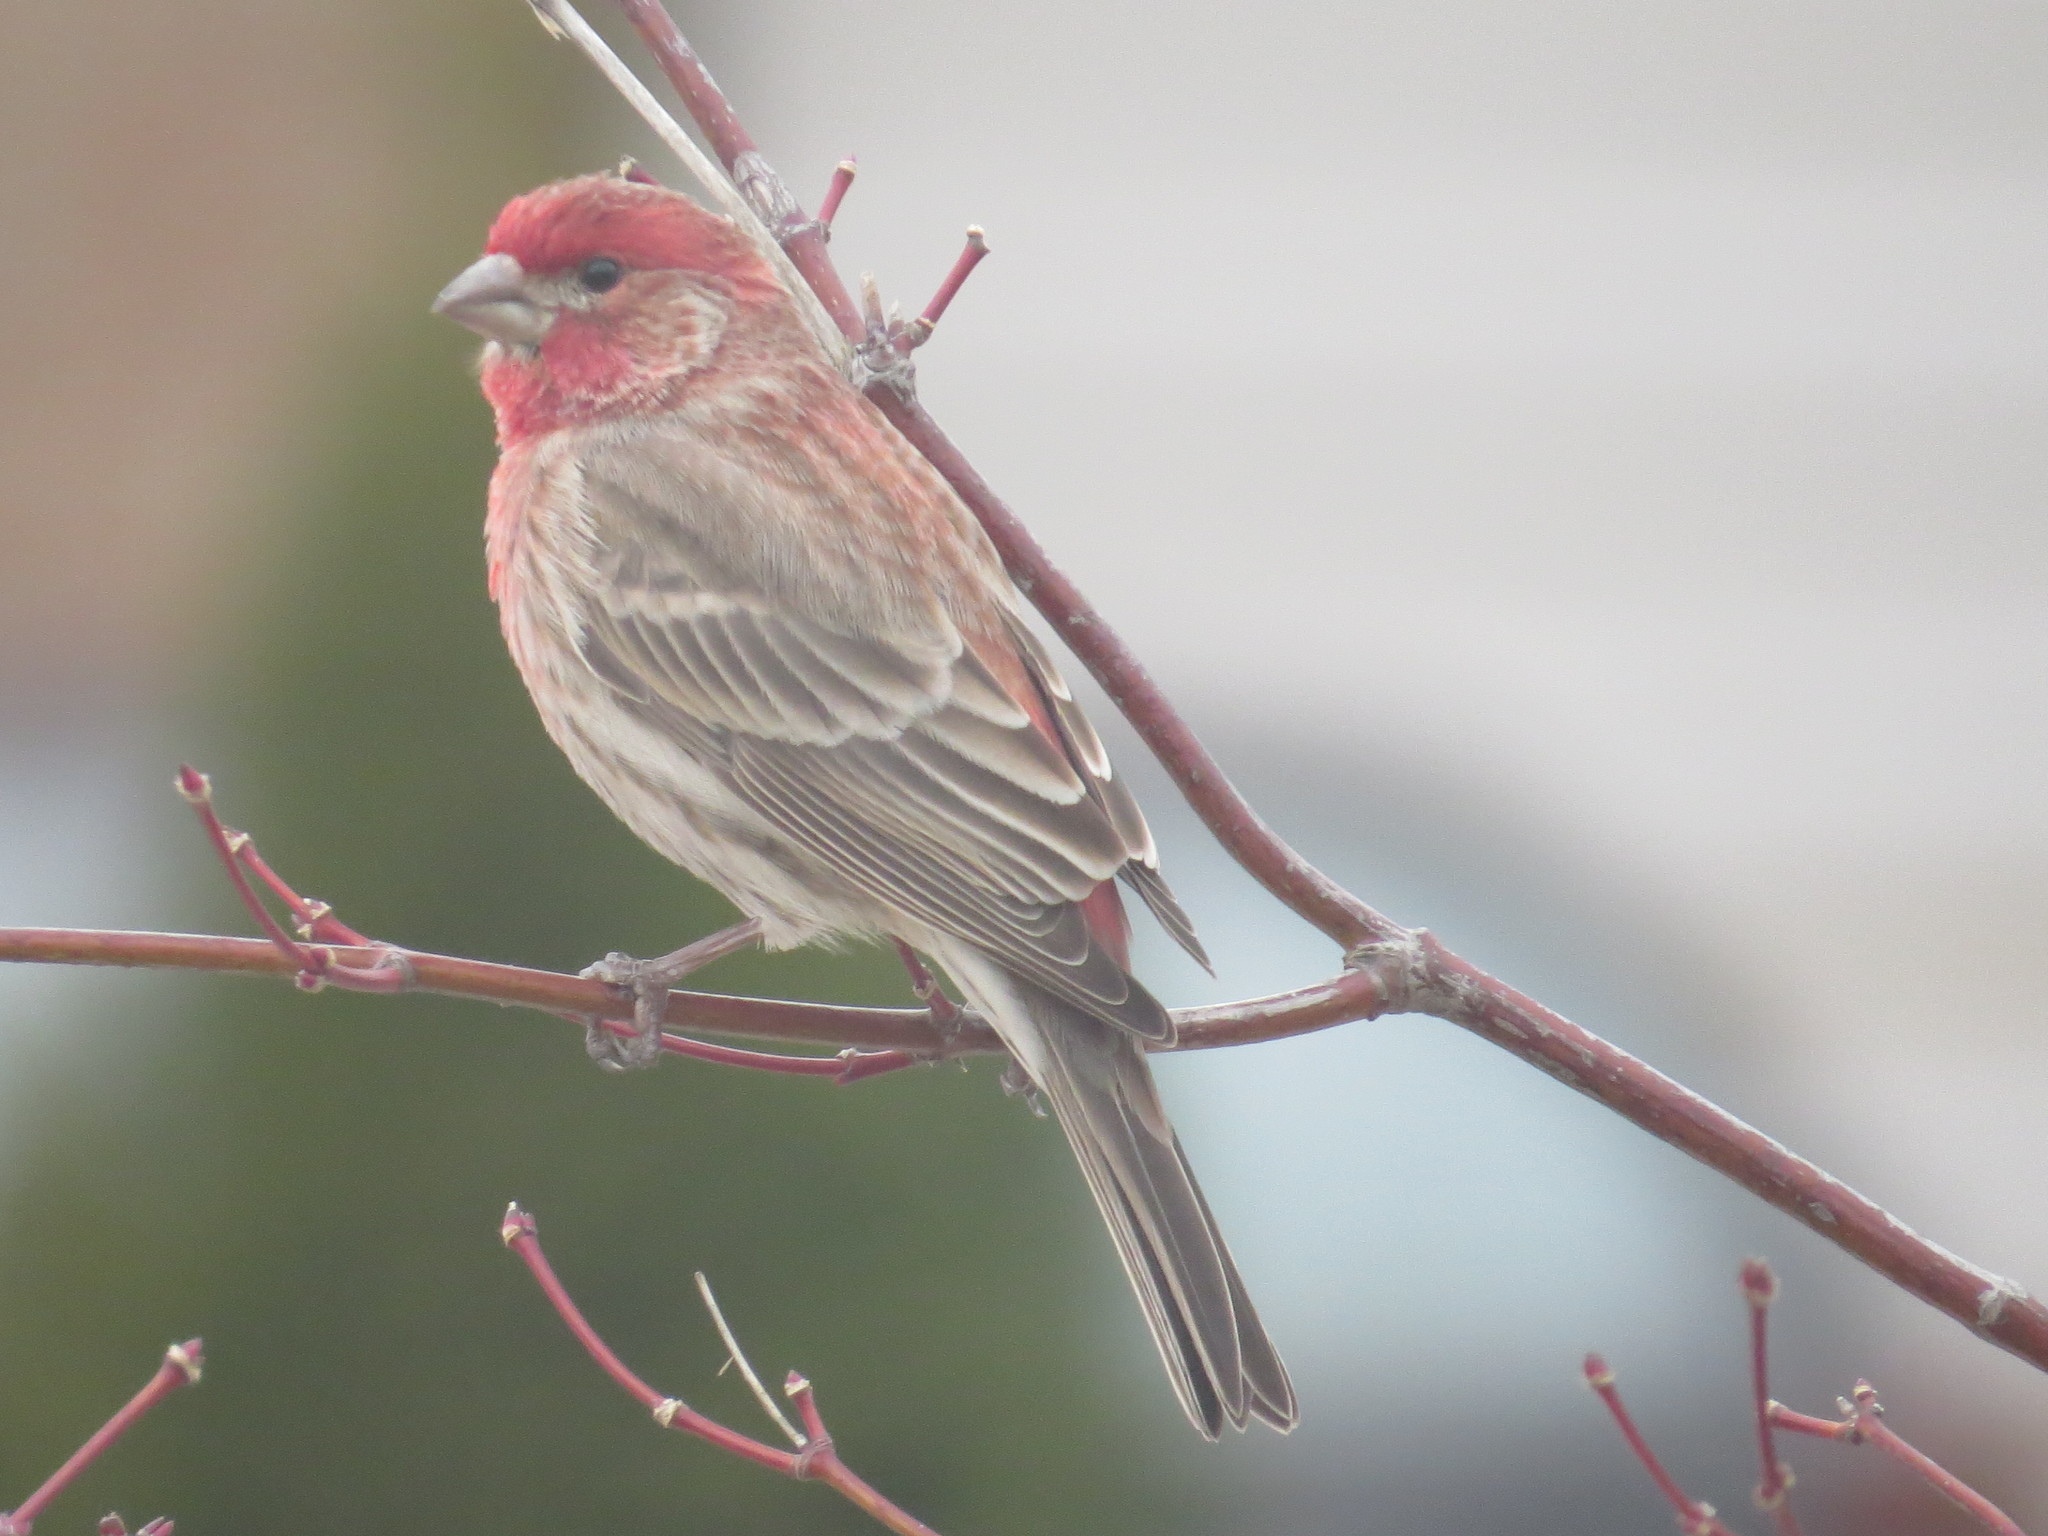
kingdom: Animalia
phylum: Chordata
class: Aves
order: Passeriformes
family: Fringillidae
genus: Haemorhous
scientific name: Haemorhous mexicanus
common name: House finch
